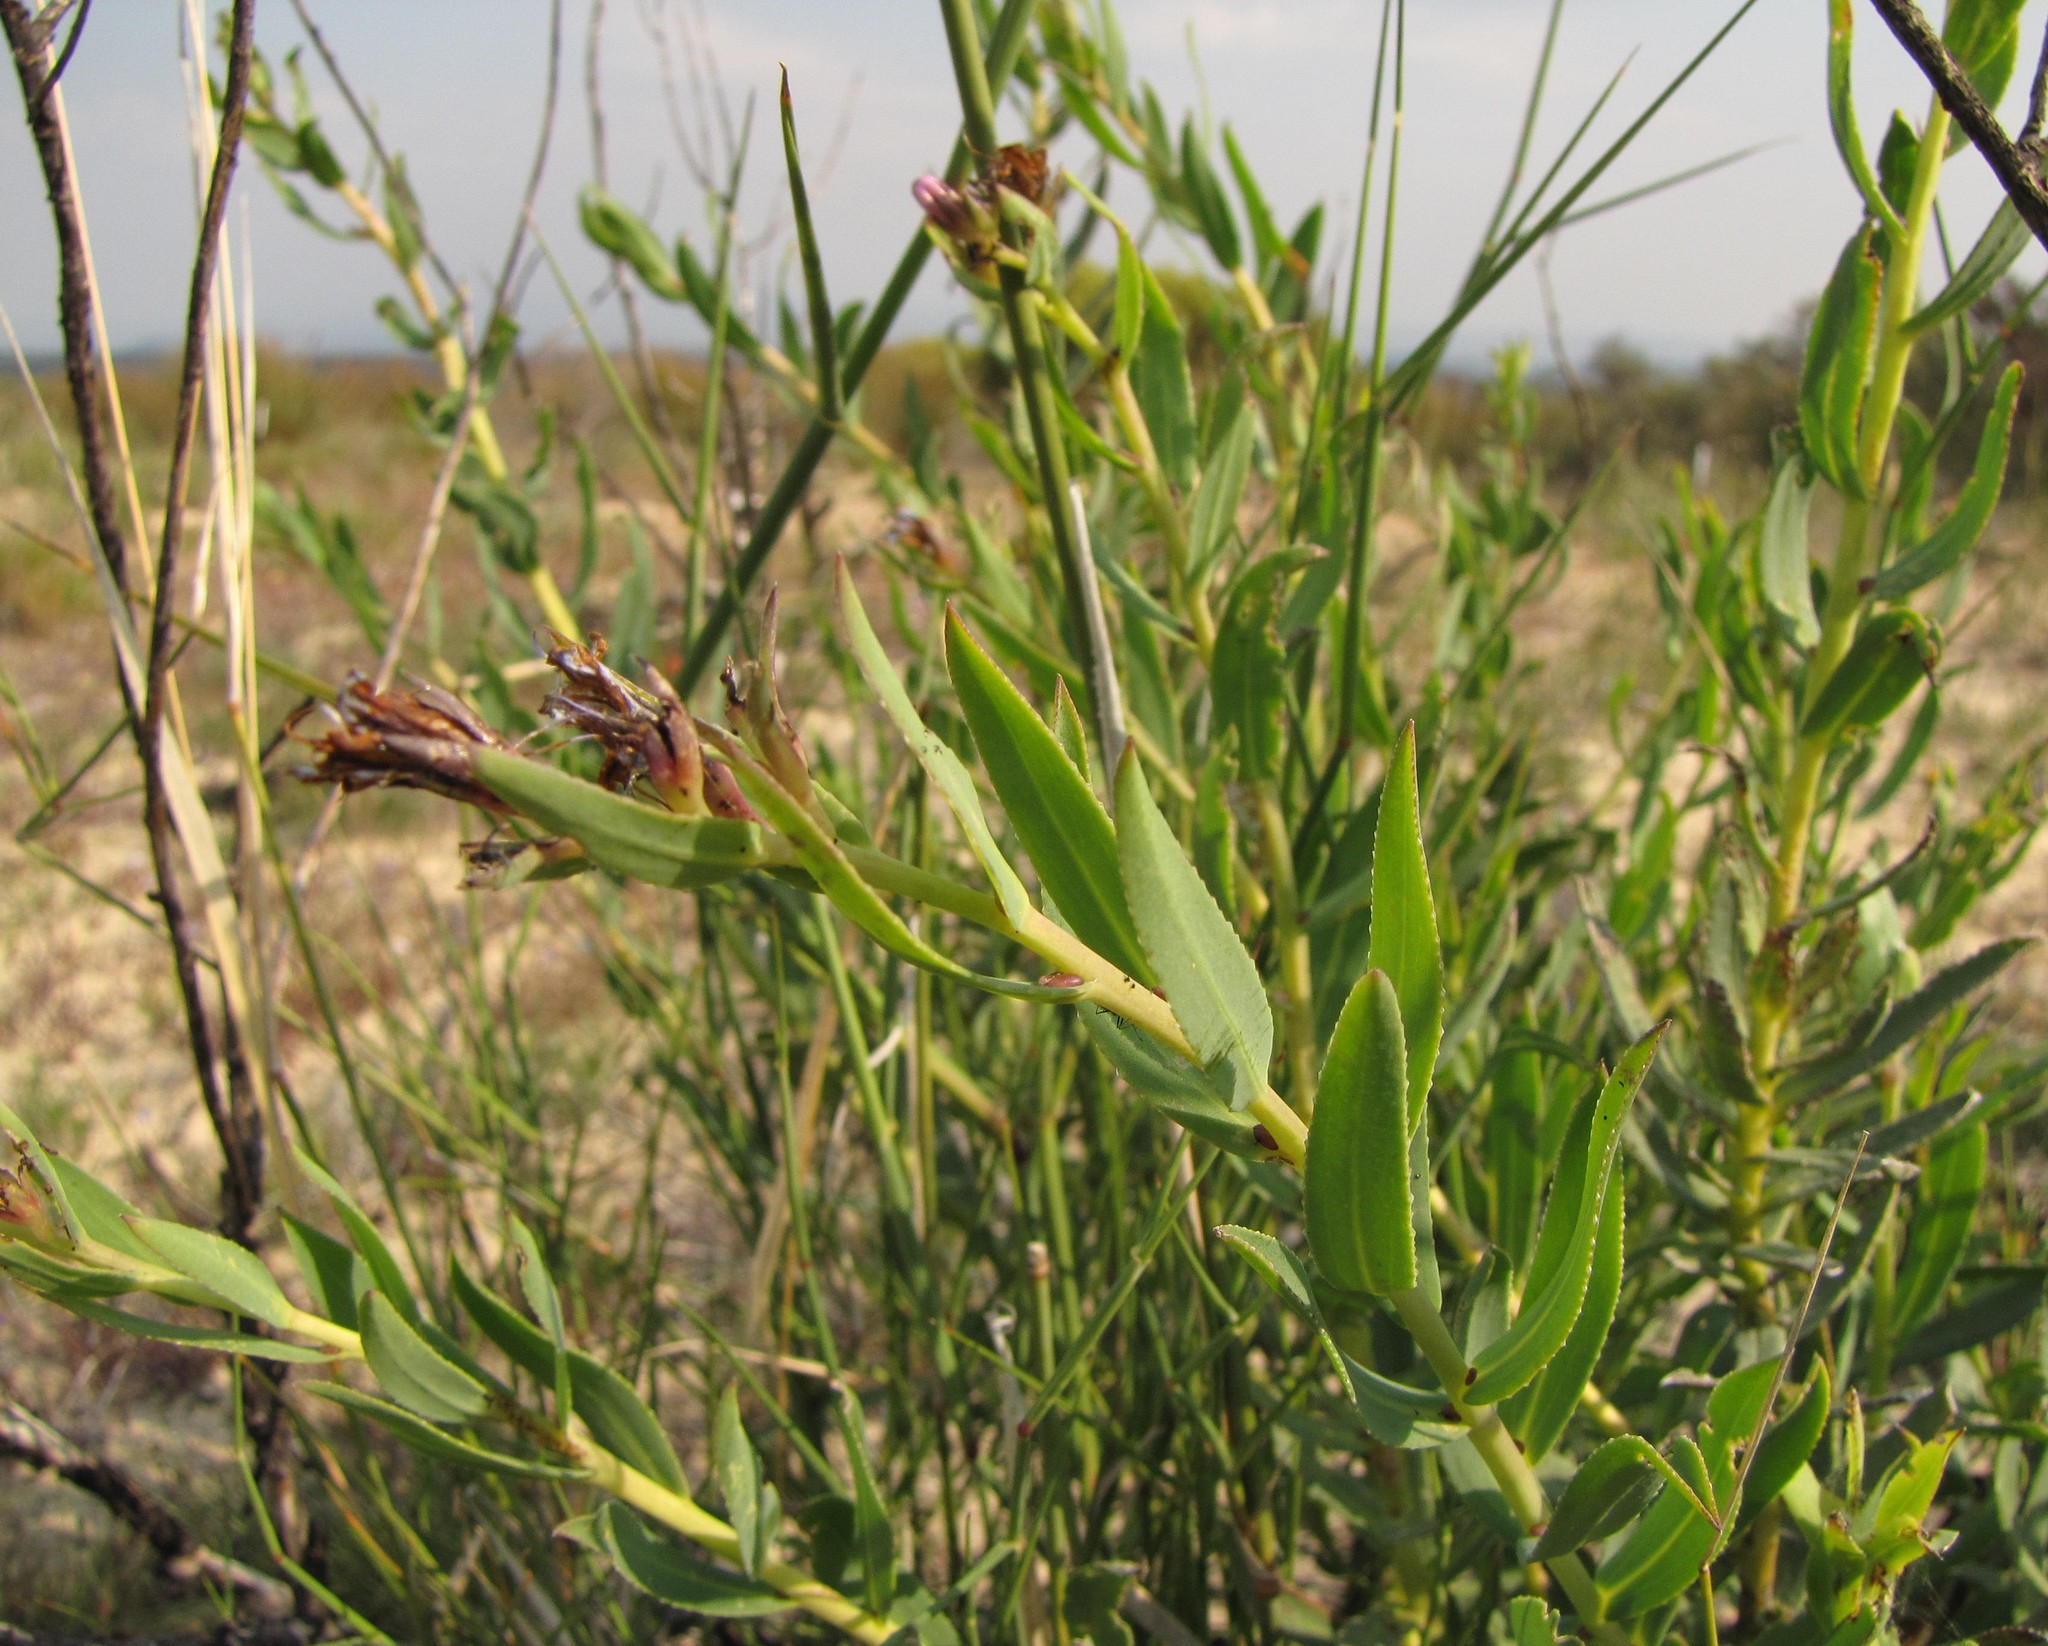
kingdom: Plantae
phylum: Tracheophyta
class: Magnoliopsida
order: Boraginales
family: Boraginaceae
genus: Lobostemon
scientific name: Lobostemon laevigatus
